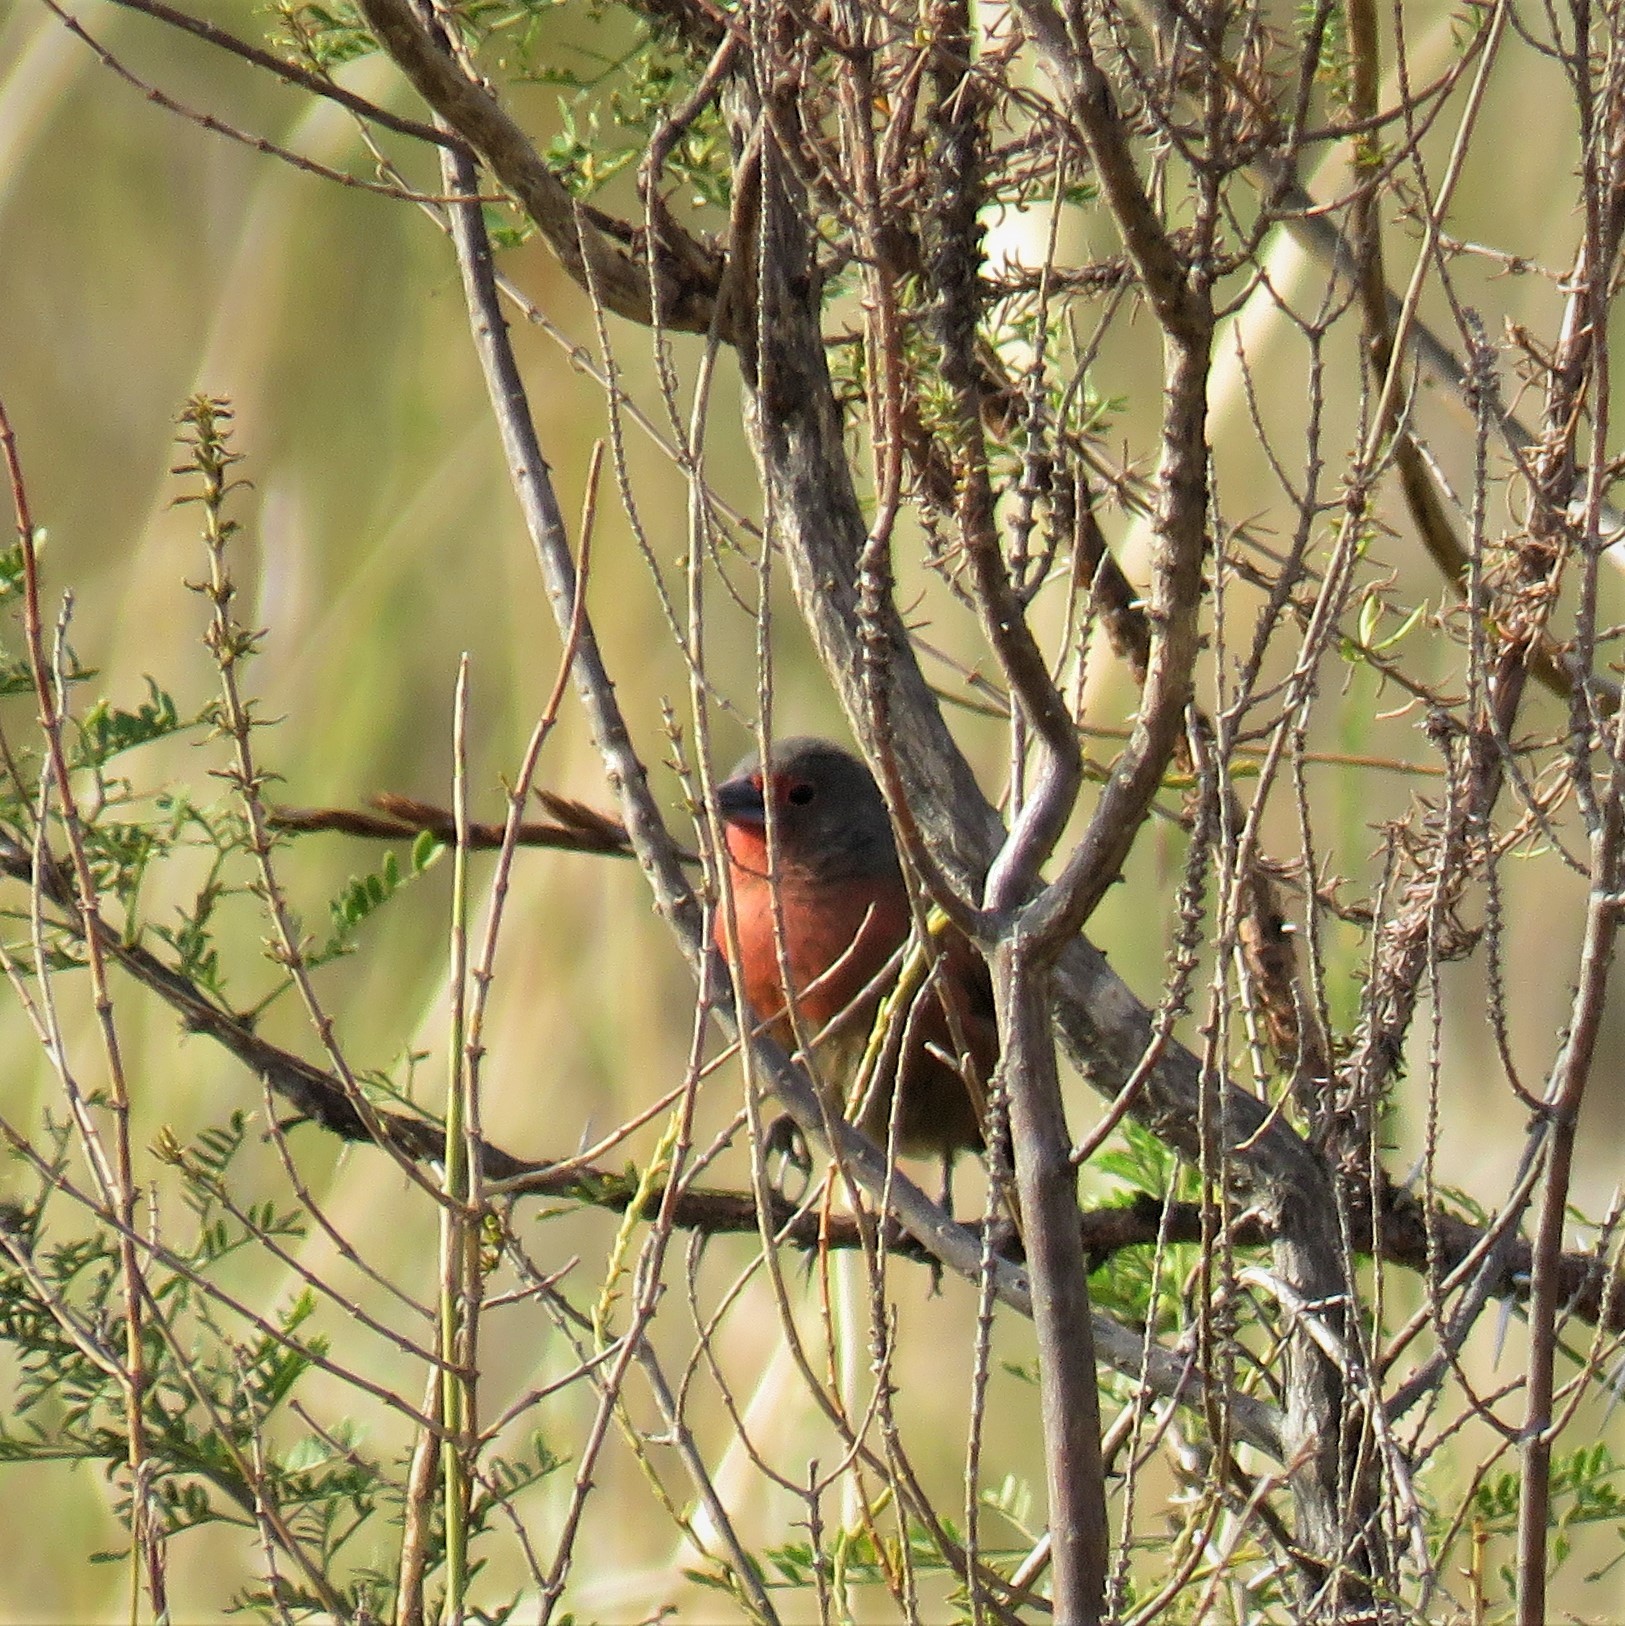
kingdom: Animalia
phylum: Chordata
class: Aves
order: Passeriformes
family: Estrildidae
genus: Lagonosticta
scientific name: Lagonosticta rubricata
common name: African firefinch
